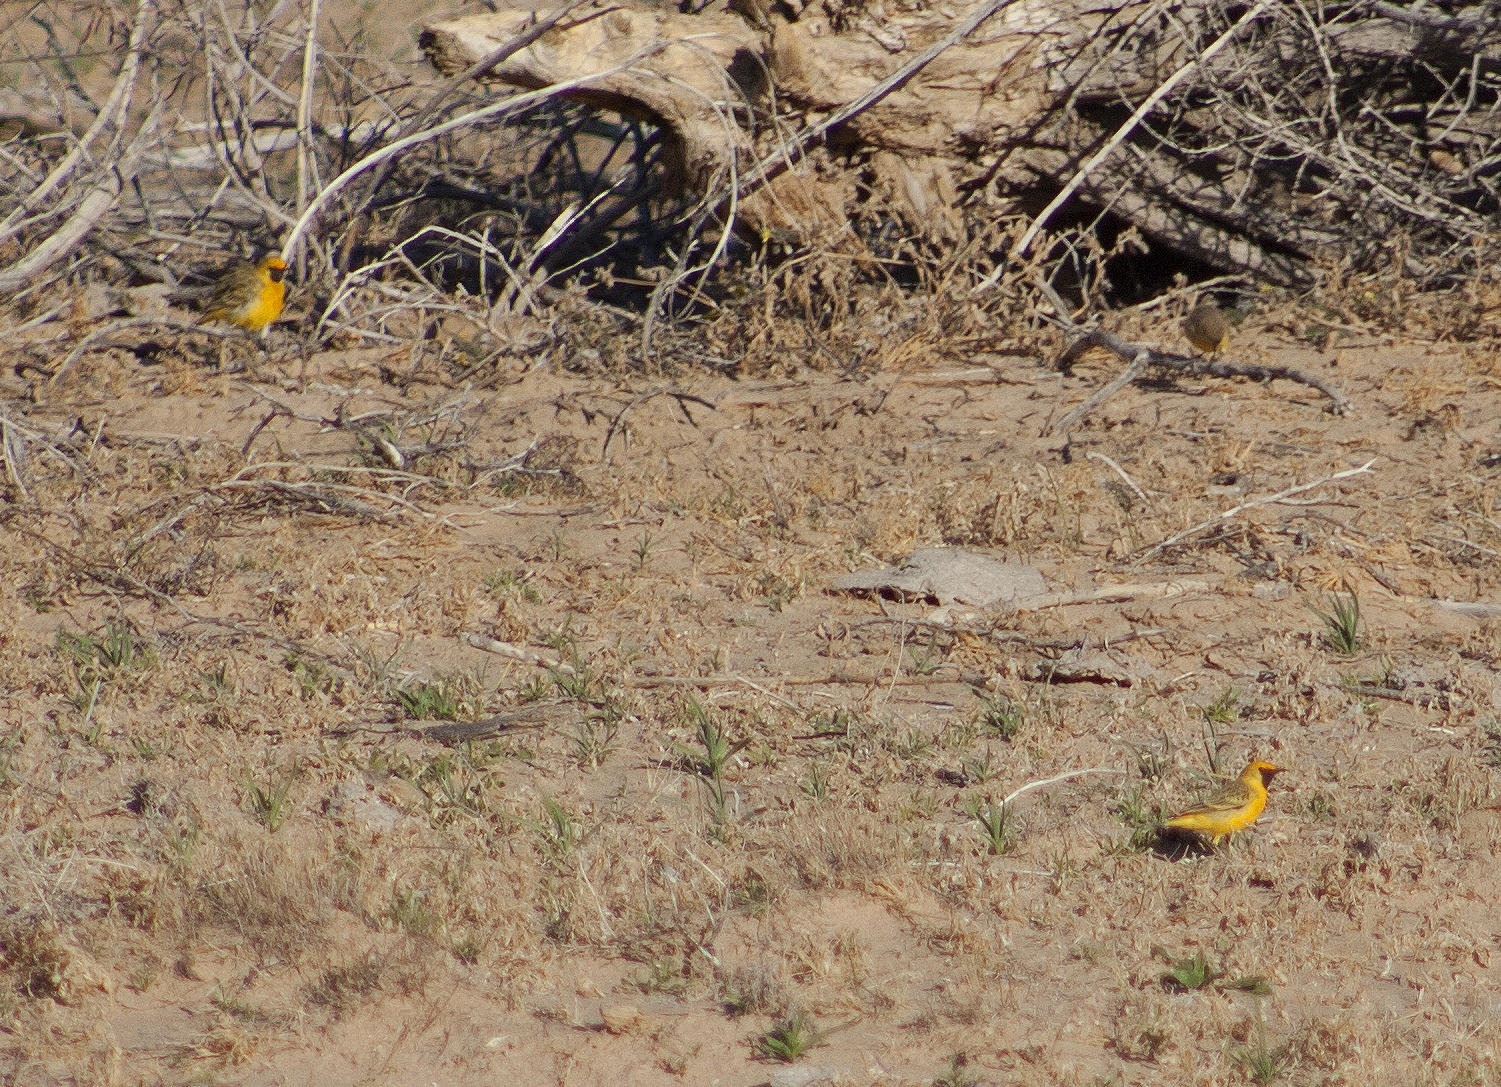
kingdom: Animalia
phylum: Chordata
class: Aves
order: Passeriformes
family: Meliphagidae
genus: Epthianura
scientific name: Epthianura aurifrons
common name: Orange chat
